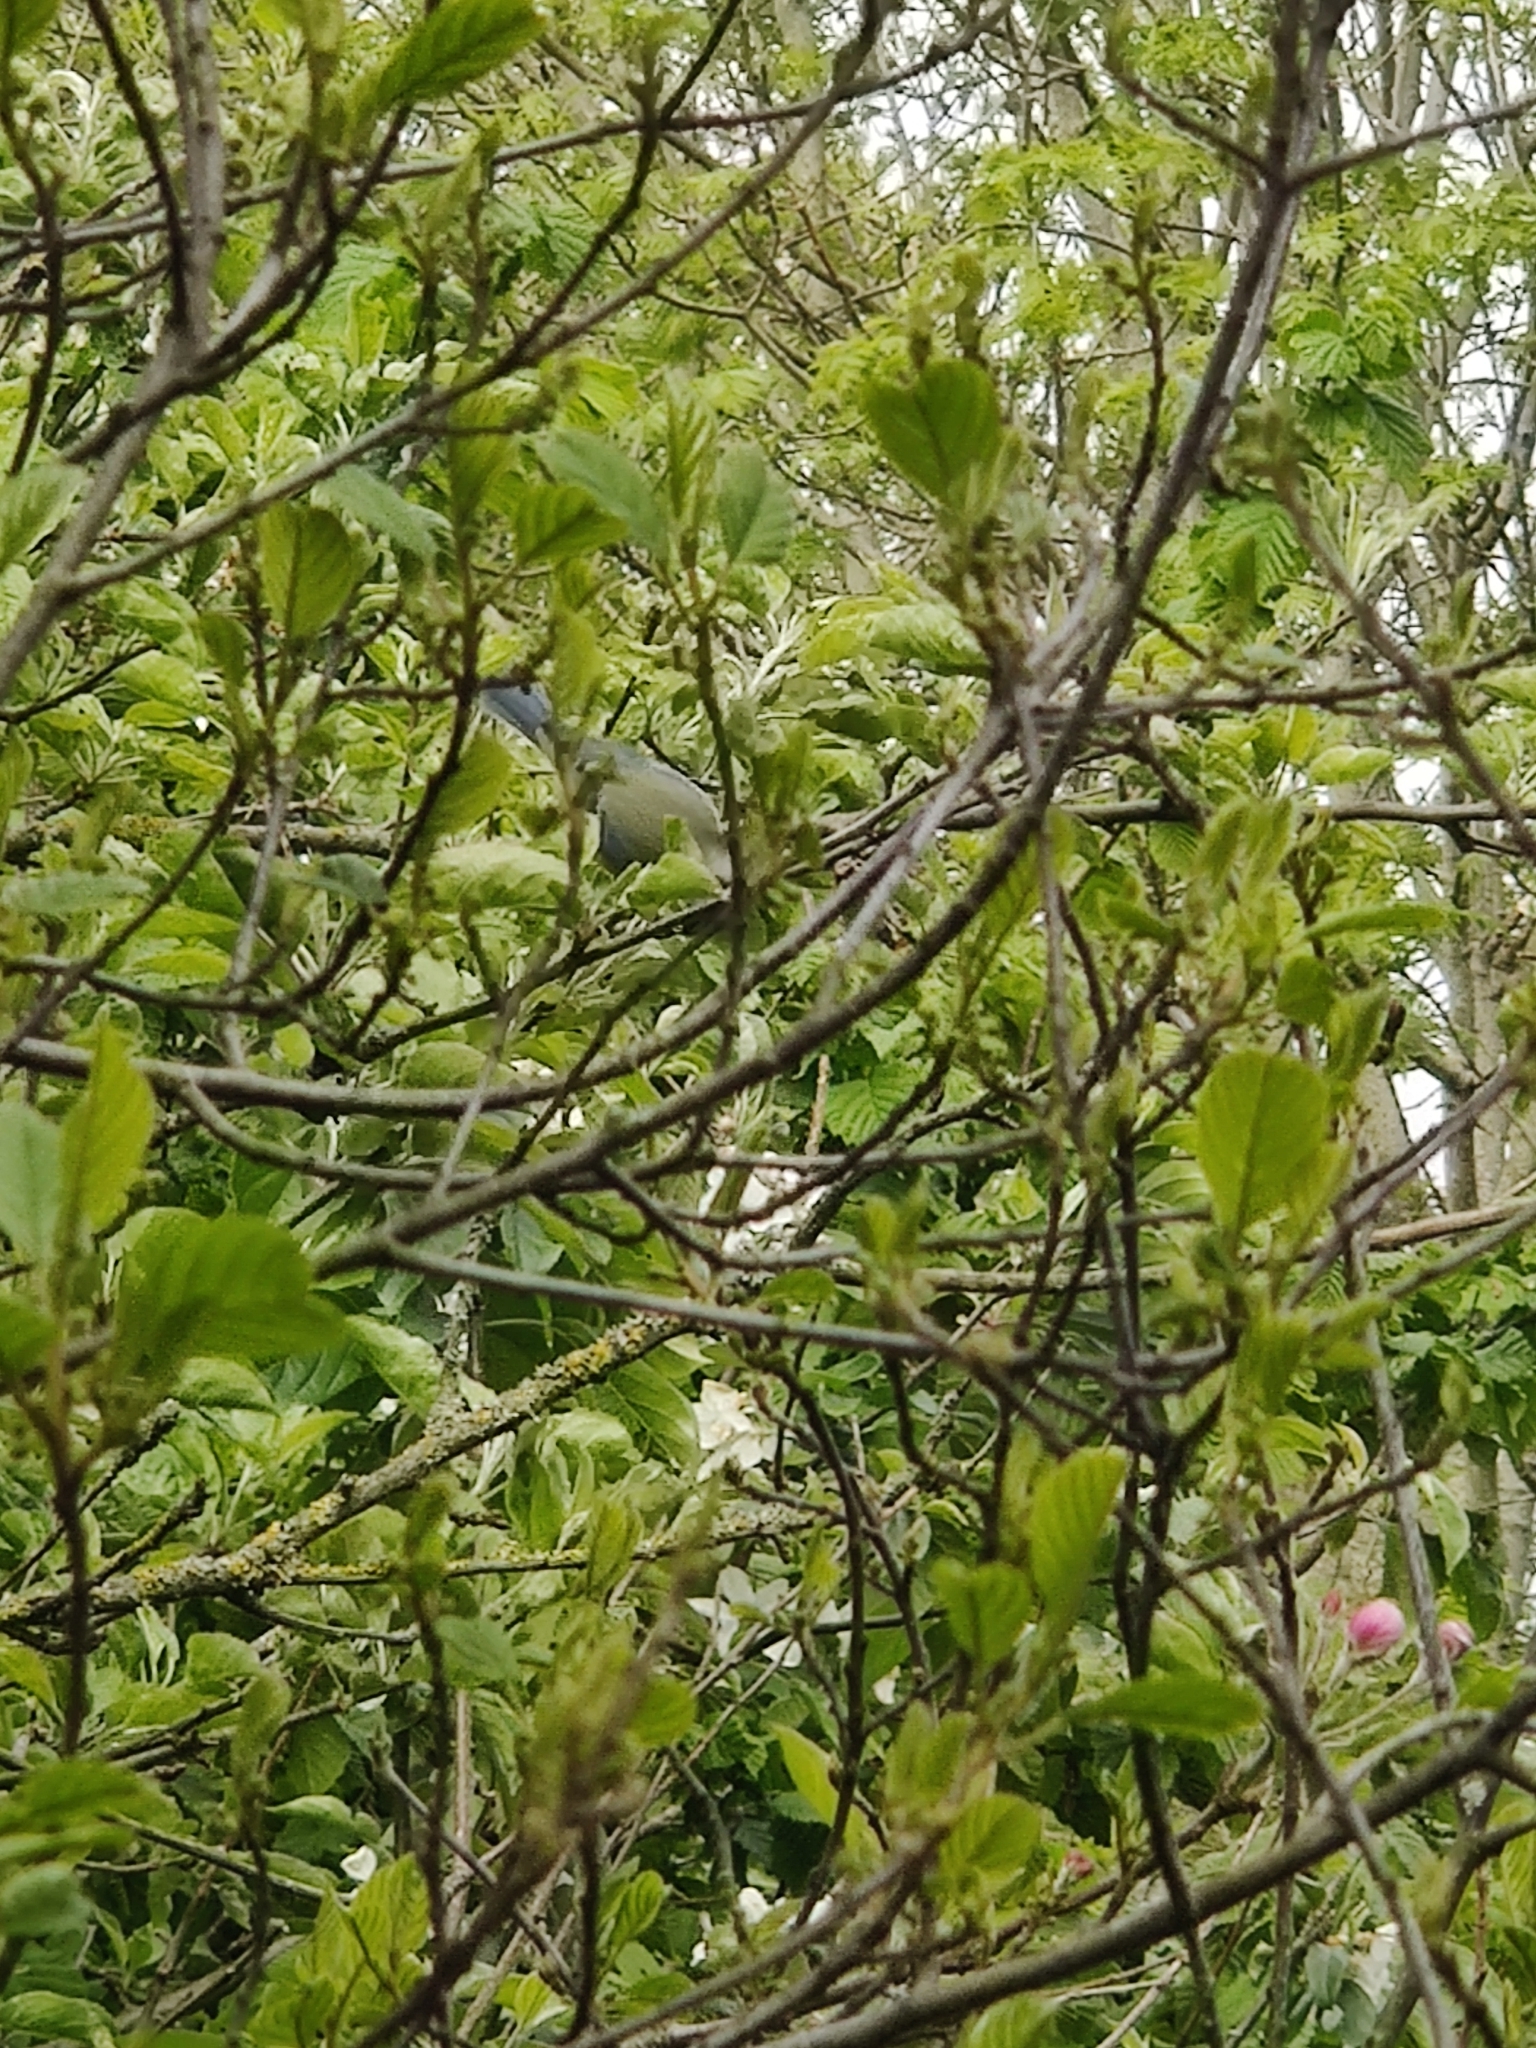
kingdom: Animalia
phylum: Chordata
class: Aves
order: Passeriformes
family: Paridae
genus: Cyanistes
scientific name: Cyanistes caeruleus
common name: Eurasian blue tit
